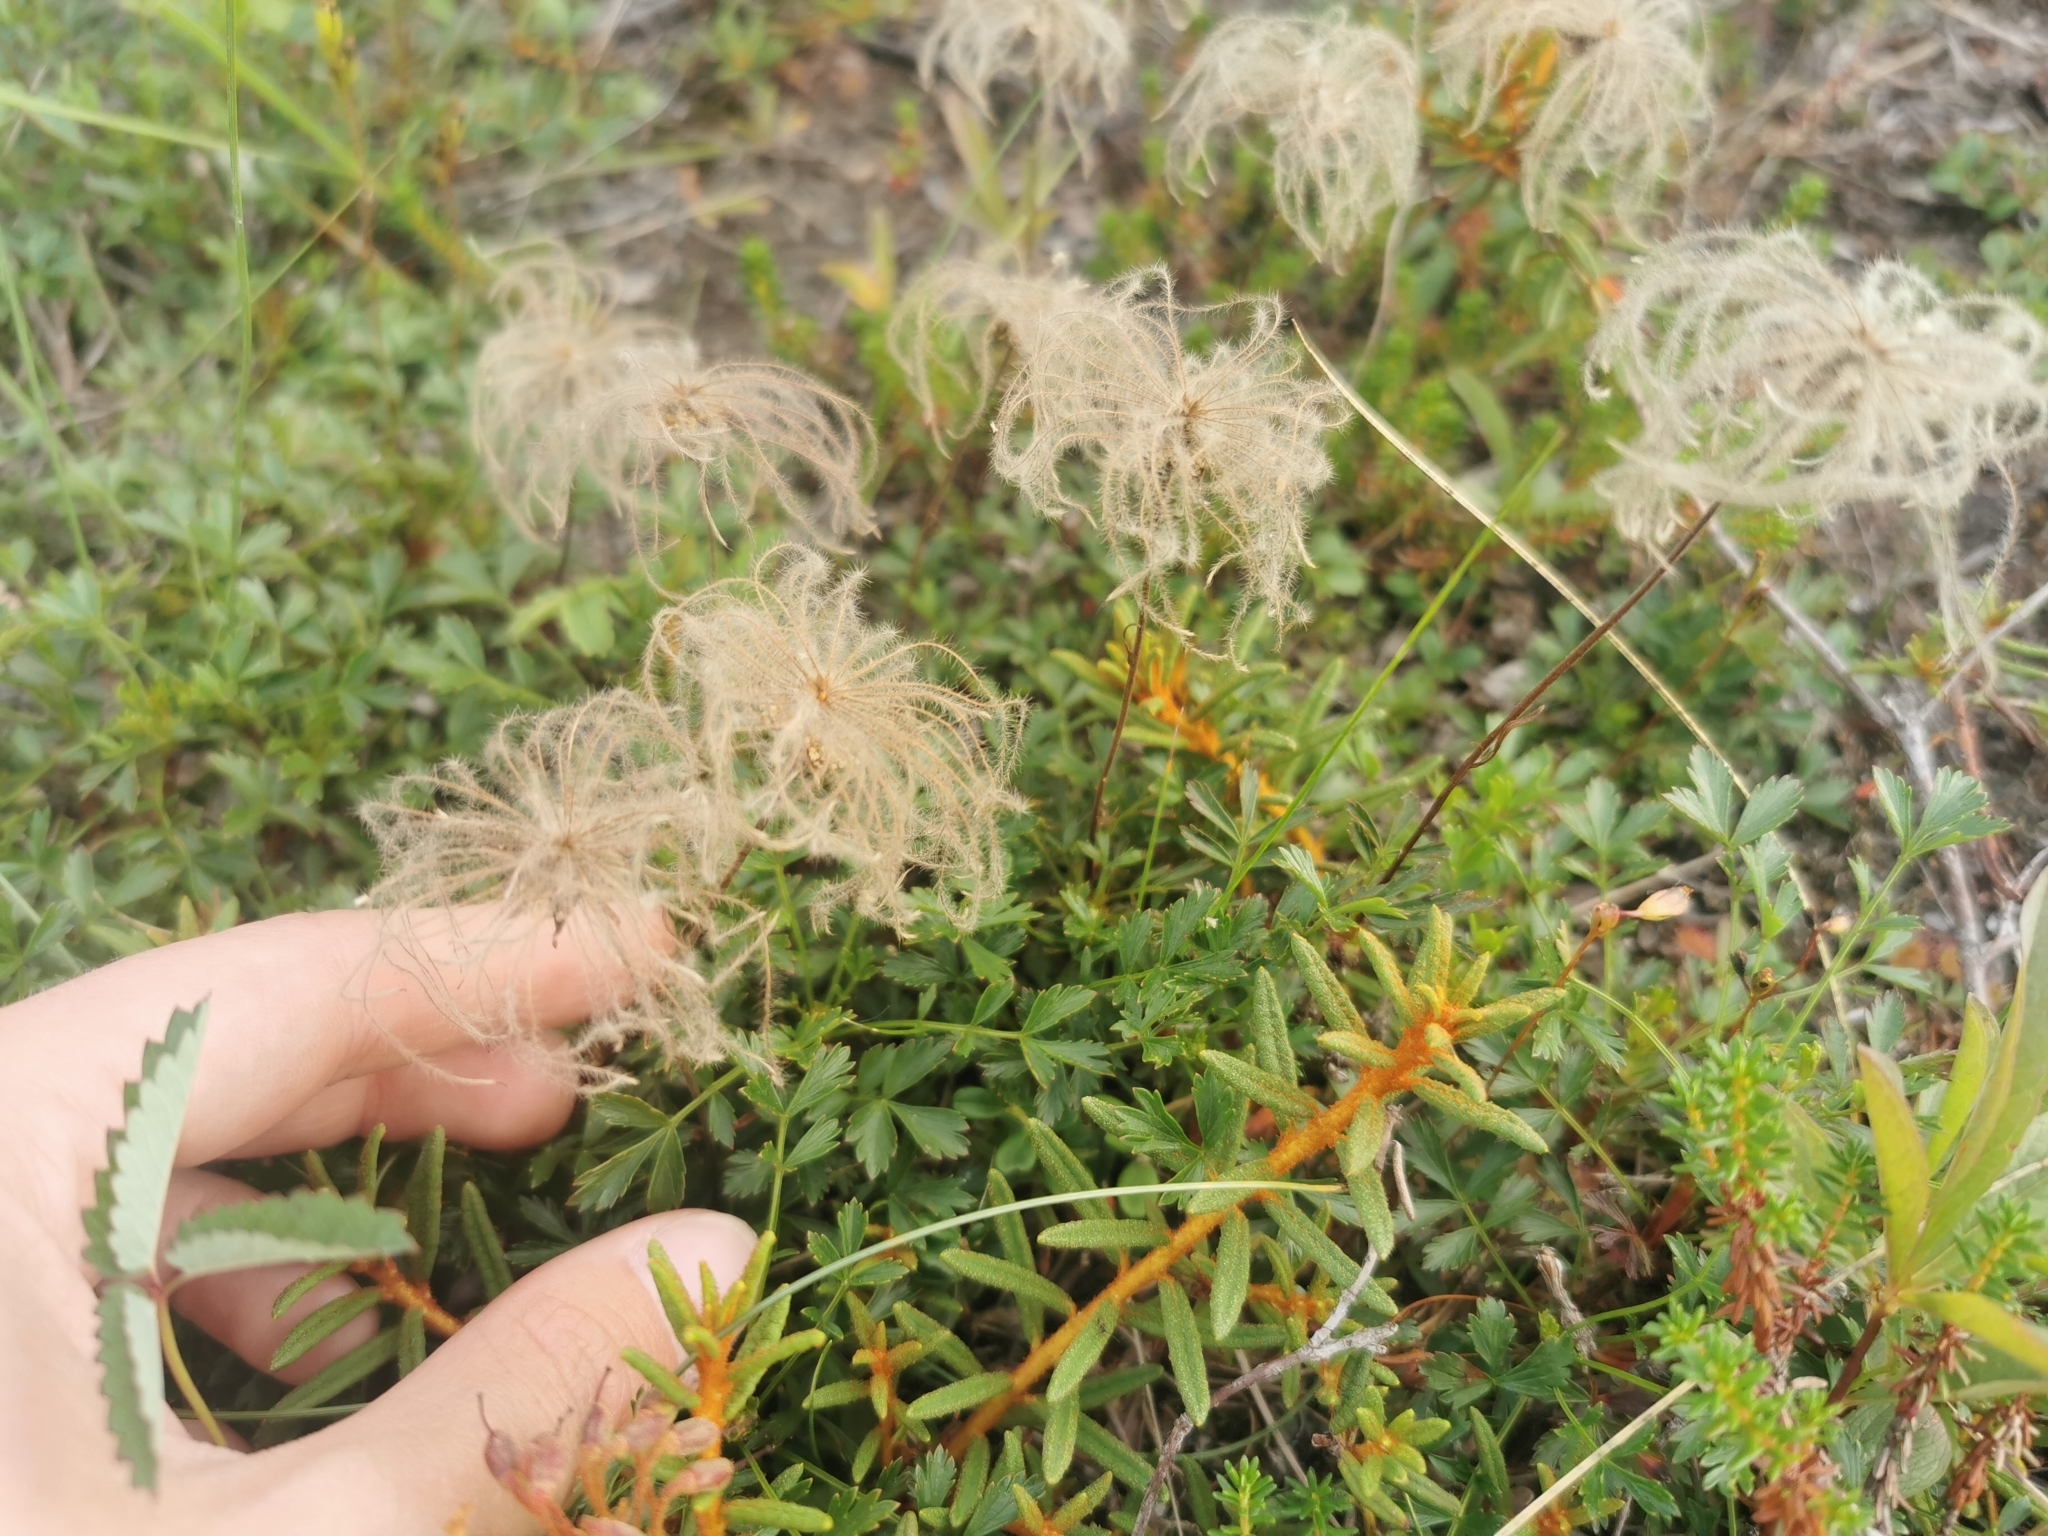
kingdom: Plantae
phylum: Tracheophyta
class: Magnoliopsida
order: Rosales
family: Rosaceae
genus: Geum
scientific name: Geum pentapetalum
